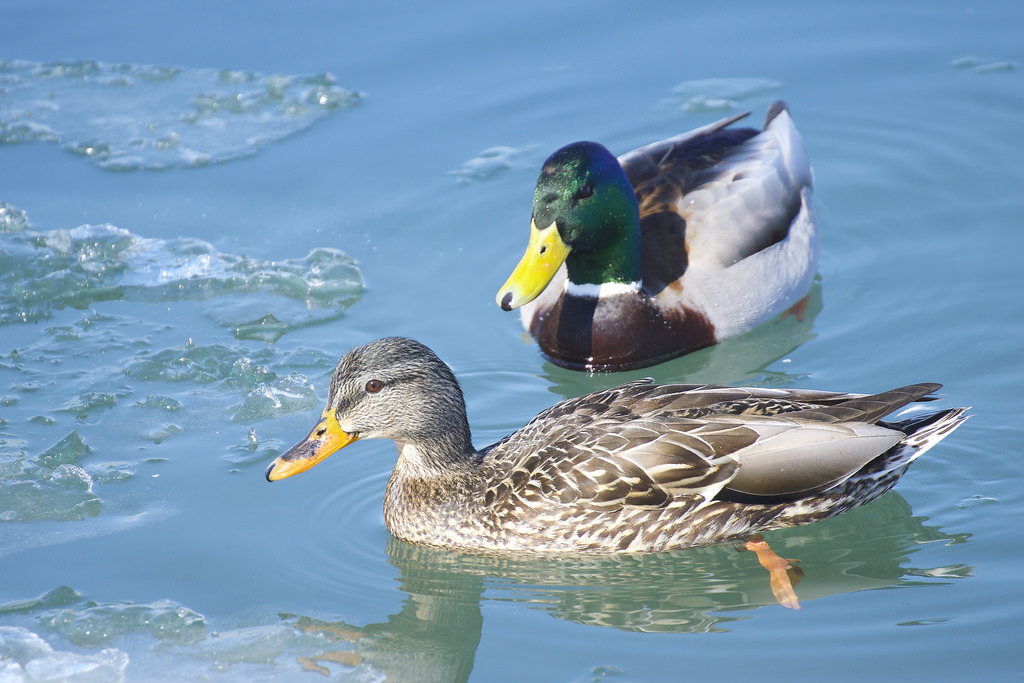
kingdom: Animalia
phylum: Chordata
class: Aves
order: Anseriformes
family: Anatidae
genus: Anas
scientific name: Anas platyrhynchos
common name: Mallard
